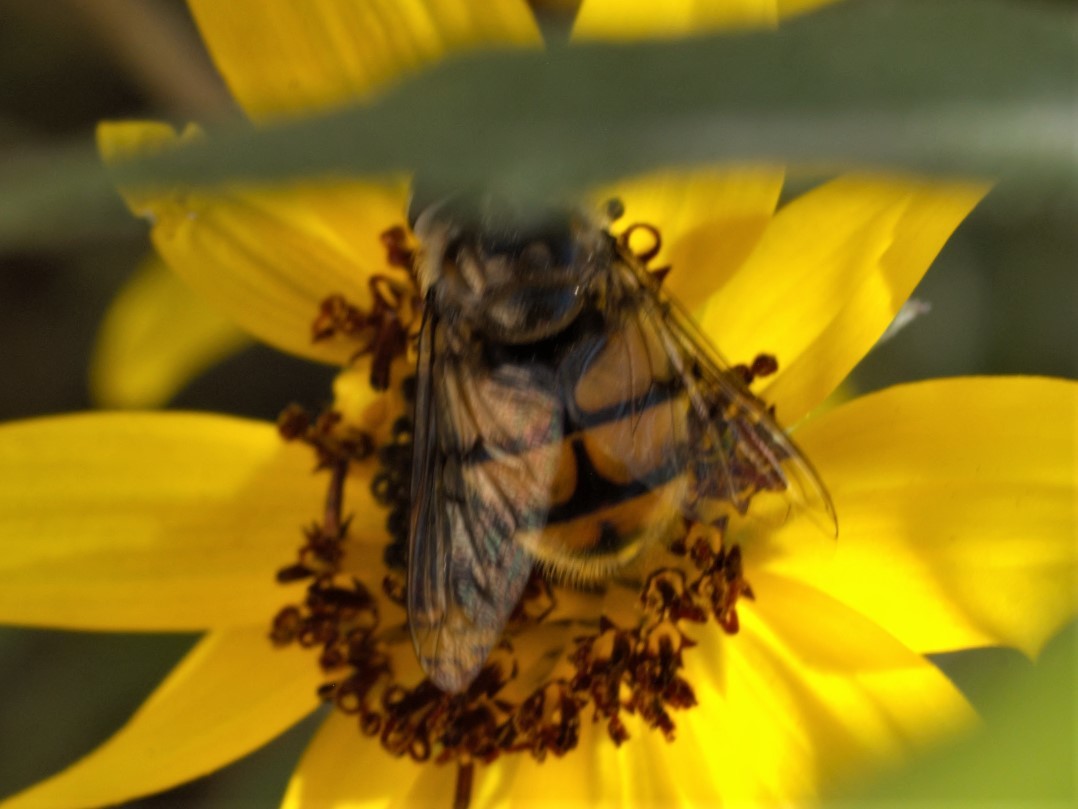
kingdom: Animalia
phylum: Arthropoda
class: Insecta
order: Diptera
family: Syrphidae
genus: Copestylum
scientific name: Copestylum avidum
